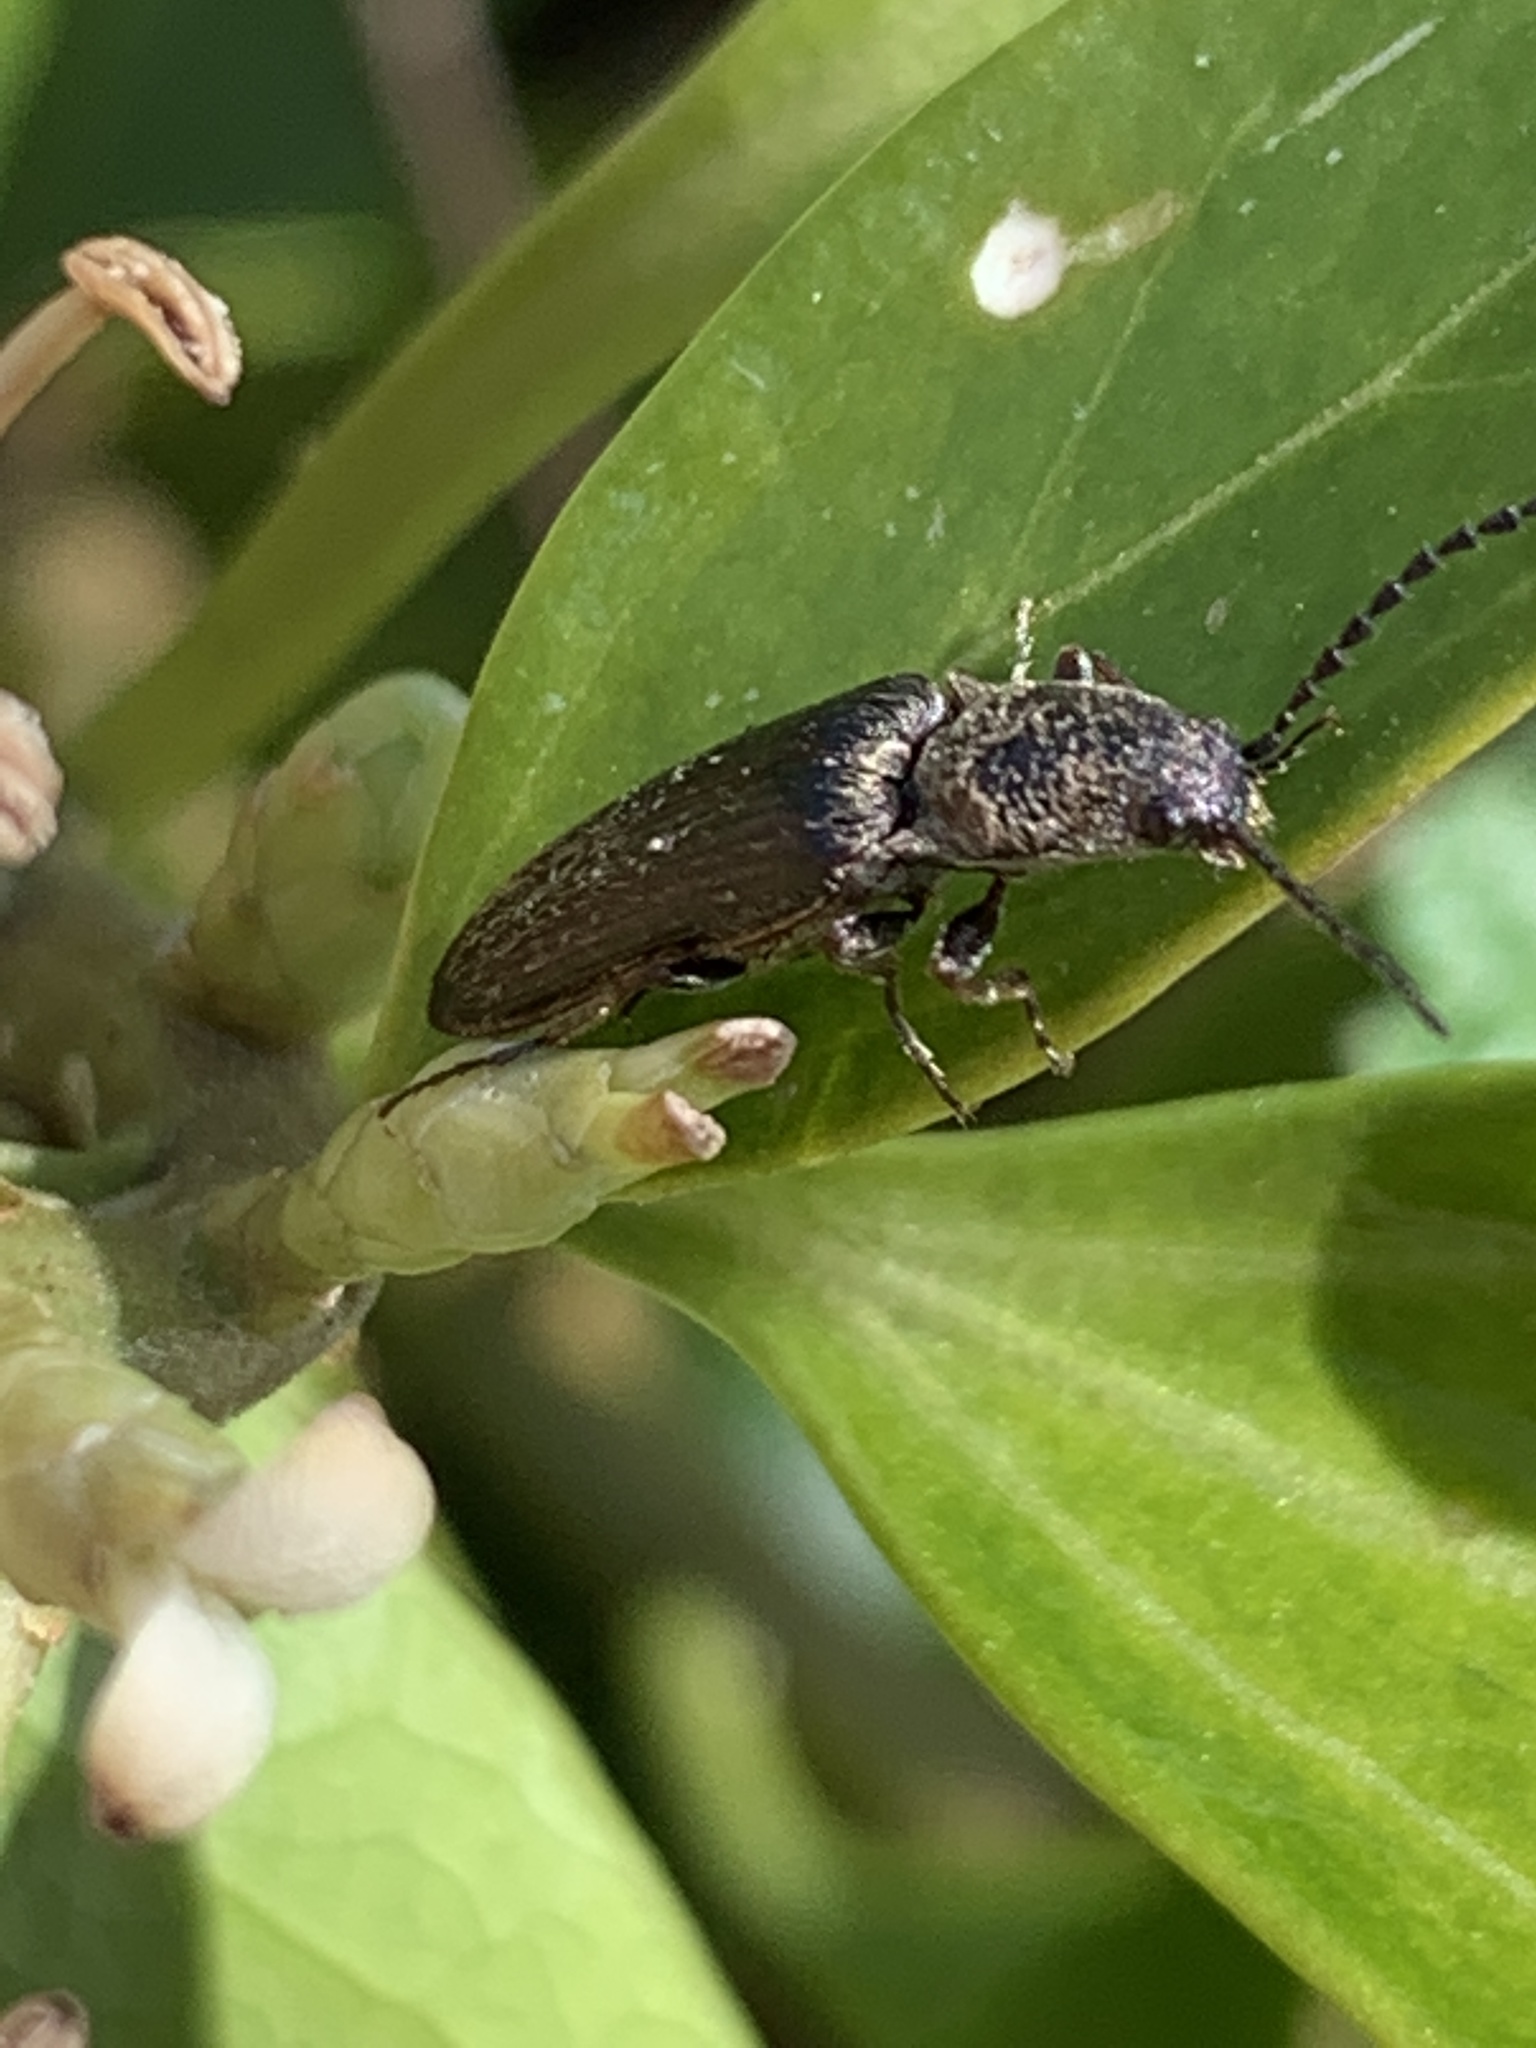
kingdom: Animalia
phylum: Arthropoda
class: Insecta
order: Coleoptera
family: Elateridae
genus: Sylvanelater
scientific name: Sylvanelater cylindriformis
